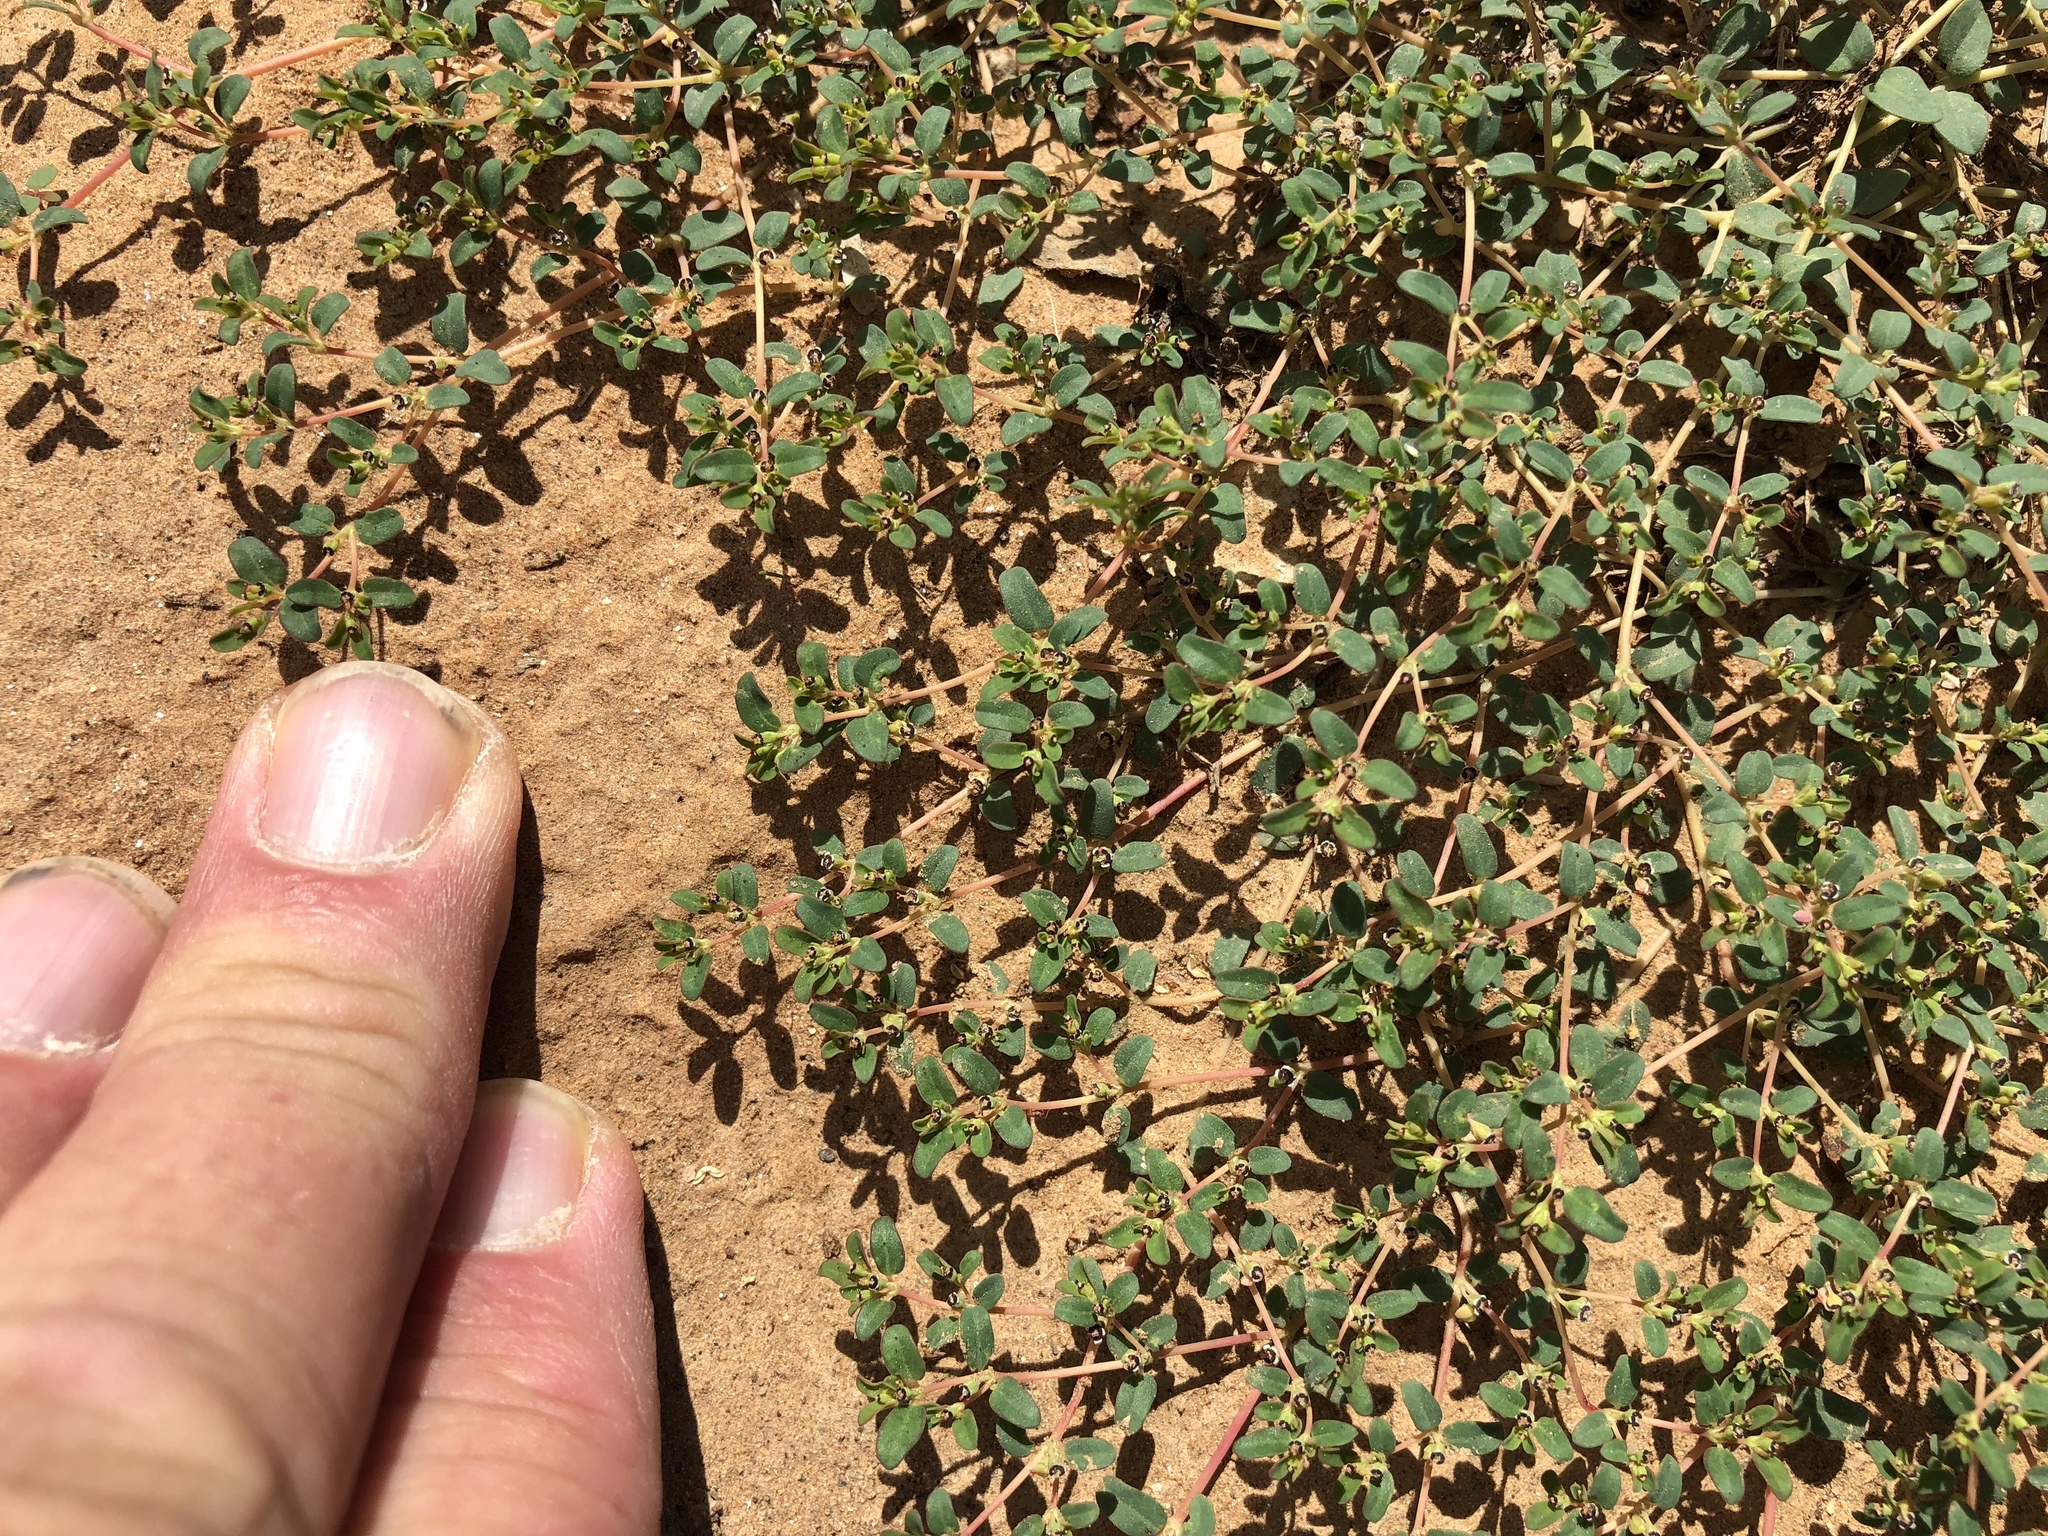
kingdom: Plantae
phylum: Tracheophyta
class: Magnoliopsida
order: Malpighiales
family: Euphorbiaceae
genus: Euphorbia
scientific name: Euphorbia polycarpa
